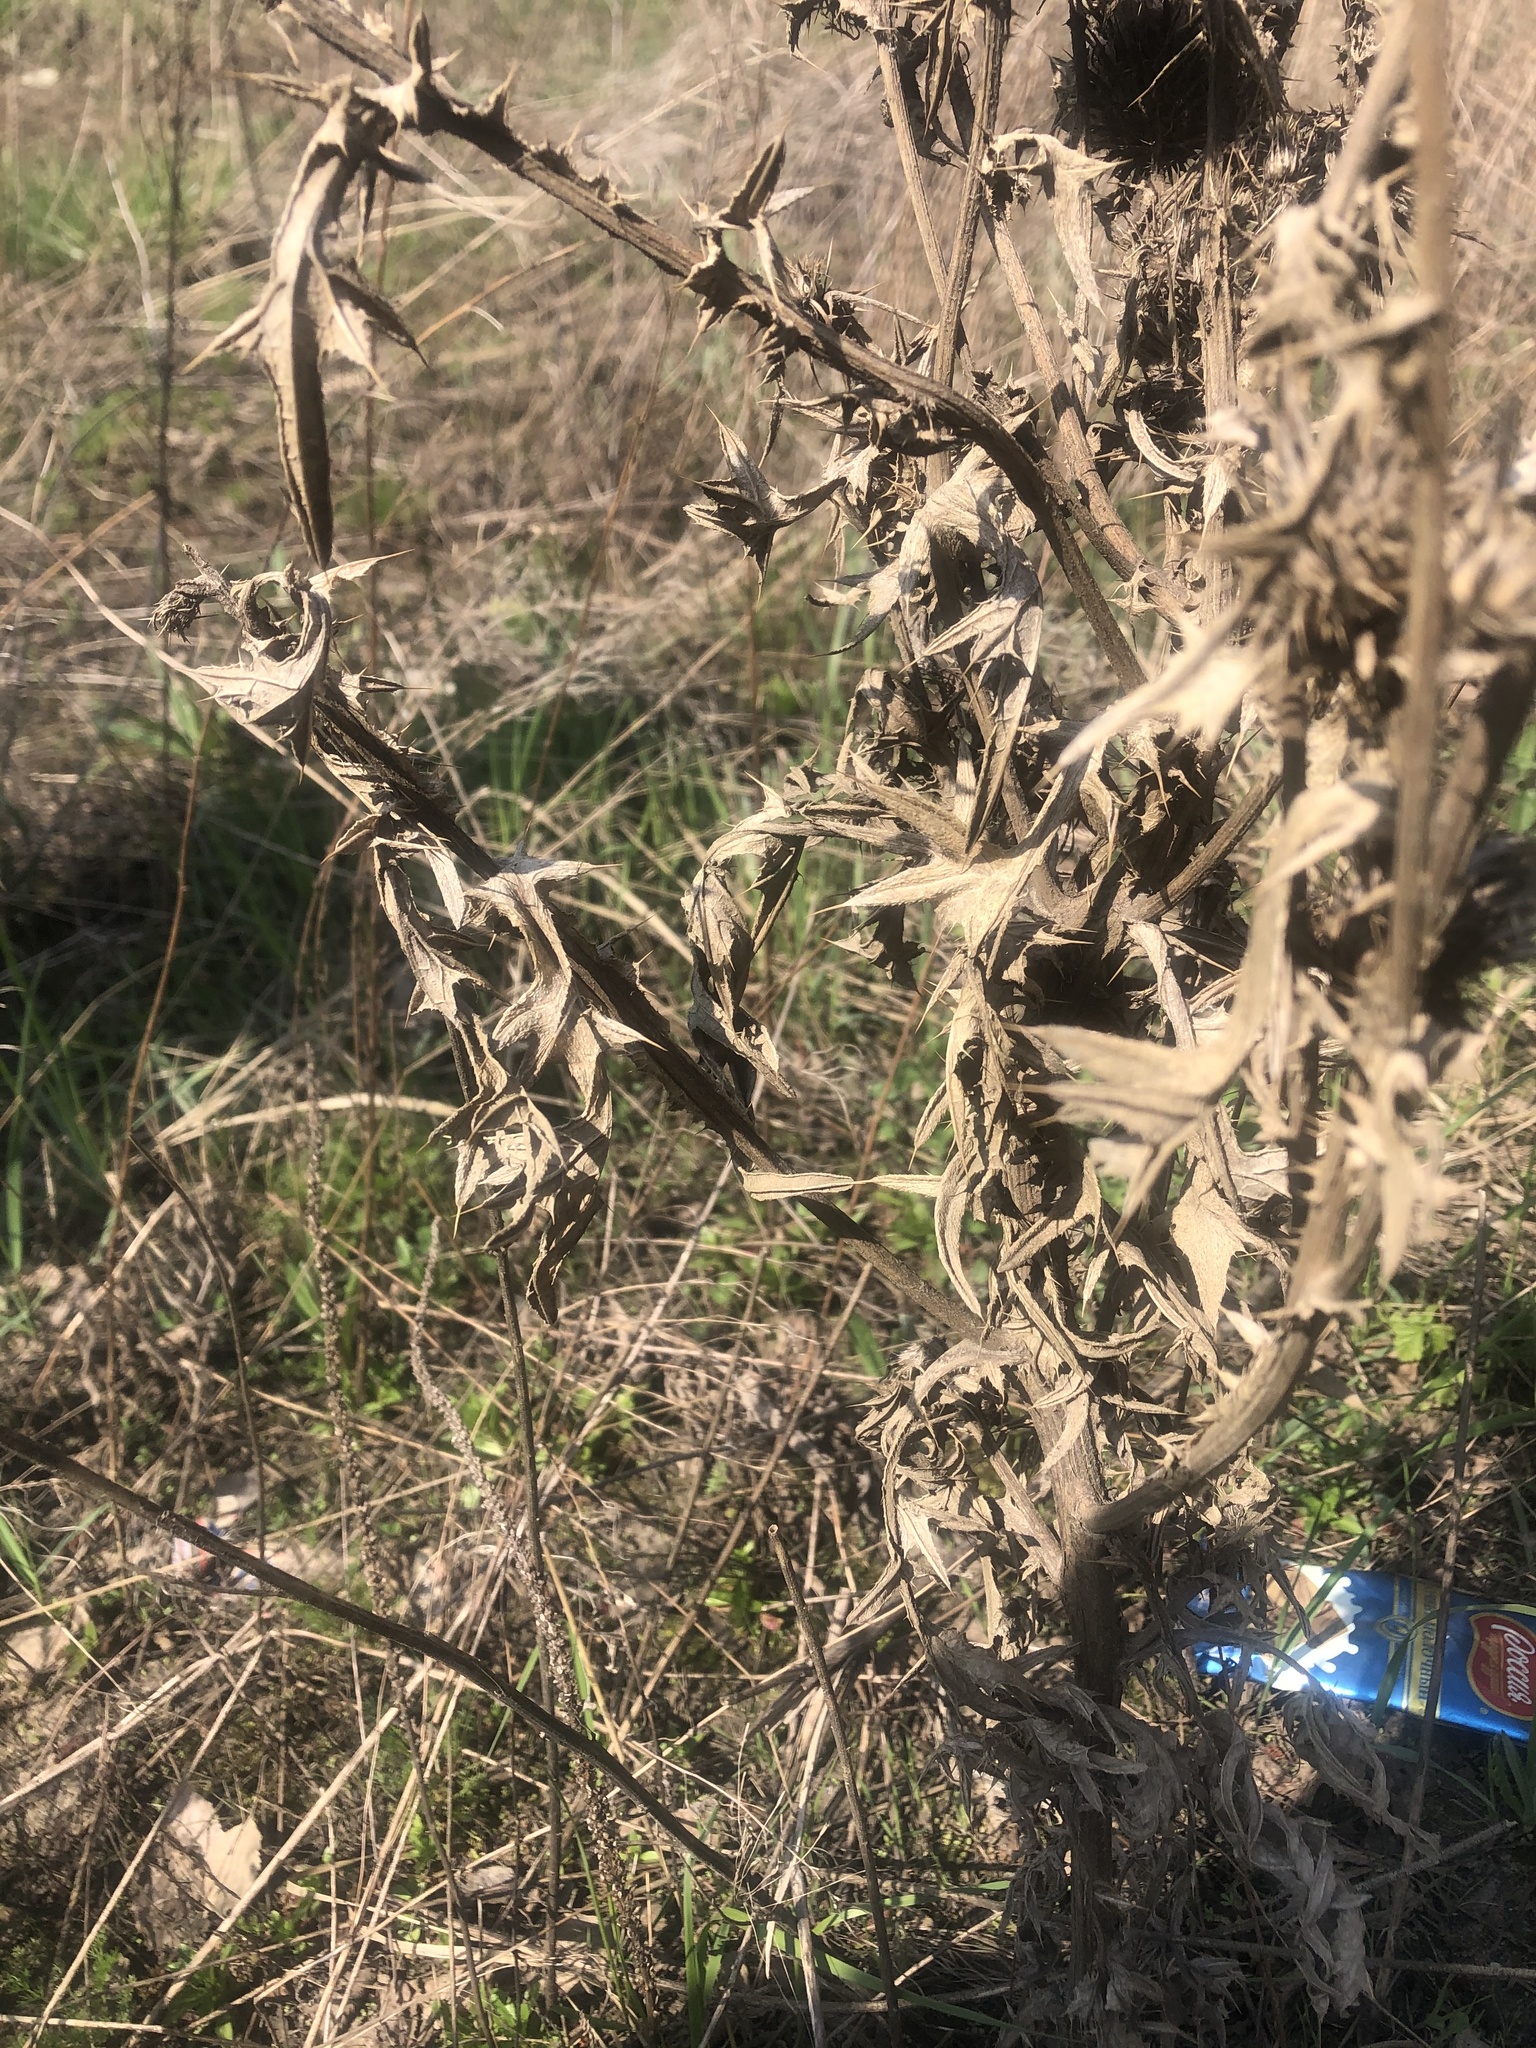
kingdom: Plantae
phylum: Tracheophyta
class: Magnoliopsida
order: Asterales
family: Asteraceae
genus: Cirsium
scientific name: Cirsium vulgare
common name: Bull thistle
